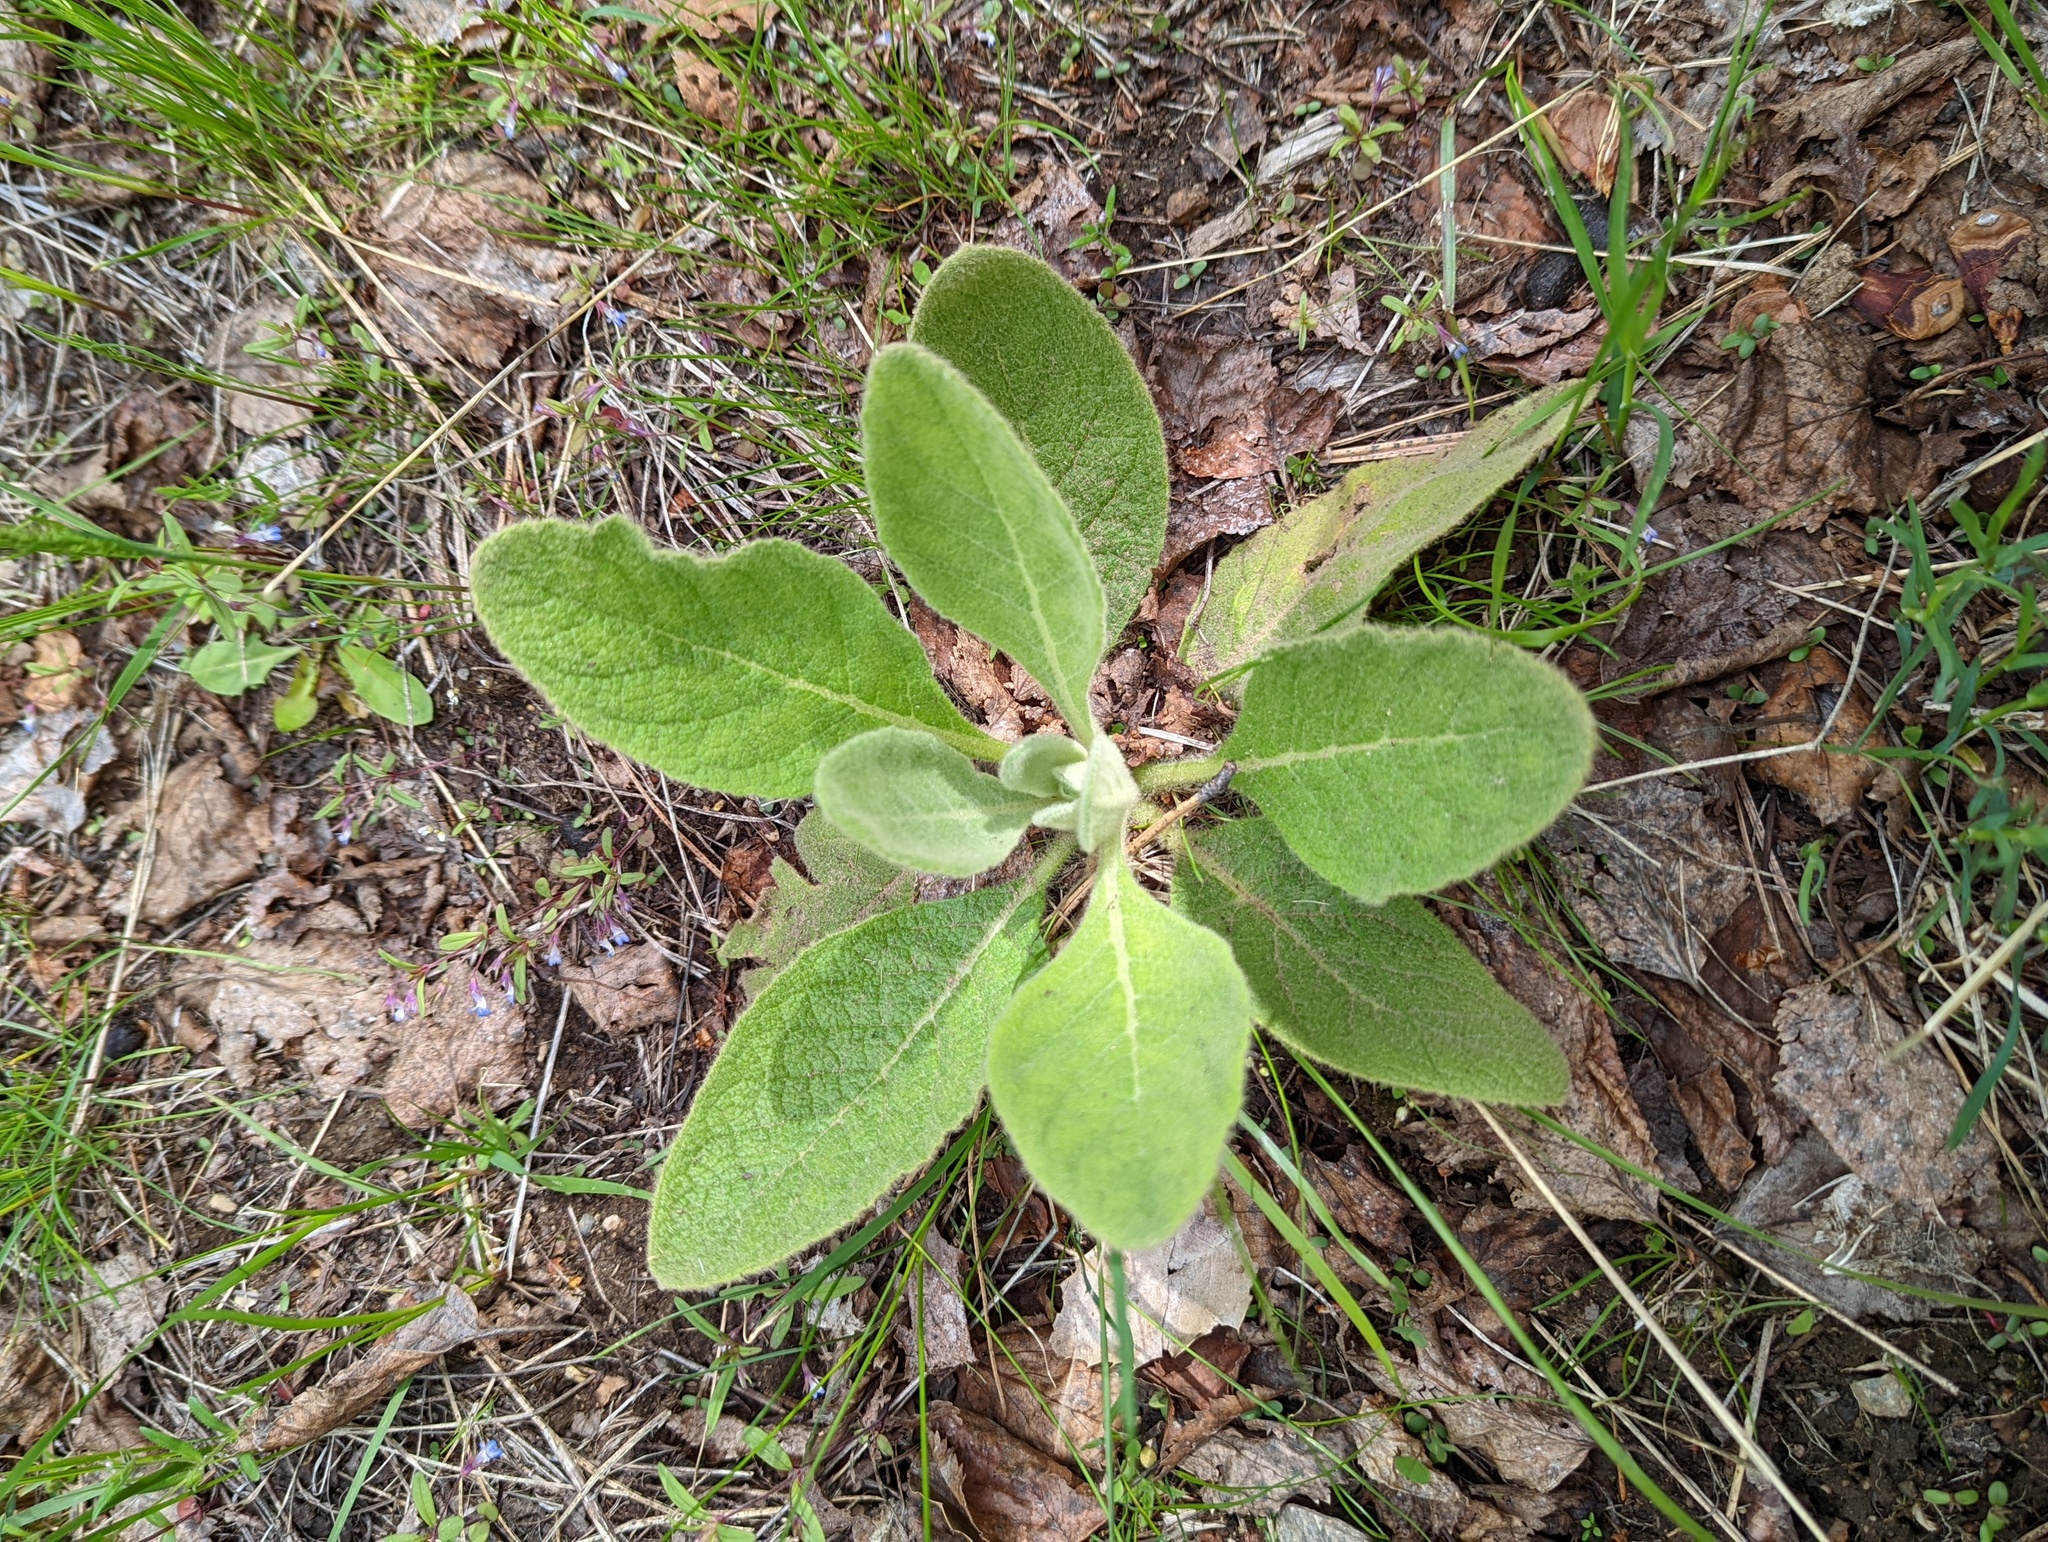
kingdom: Plantae
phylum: Tracheophyta
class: Magnoliopsida
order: Lamiales
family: Scrophulariaceae
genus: Verbascum
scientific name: Verbascum thapsus
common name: Common mullein
